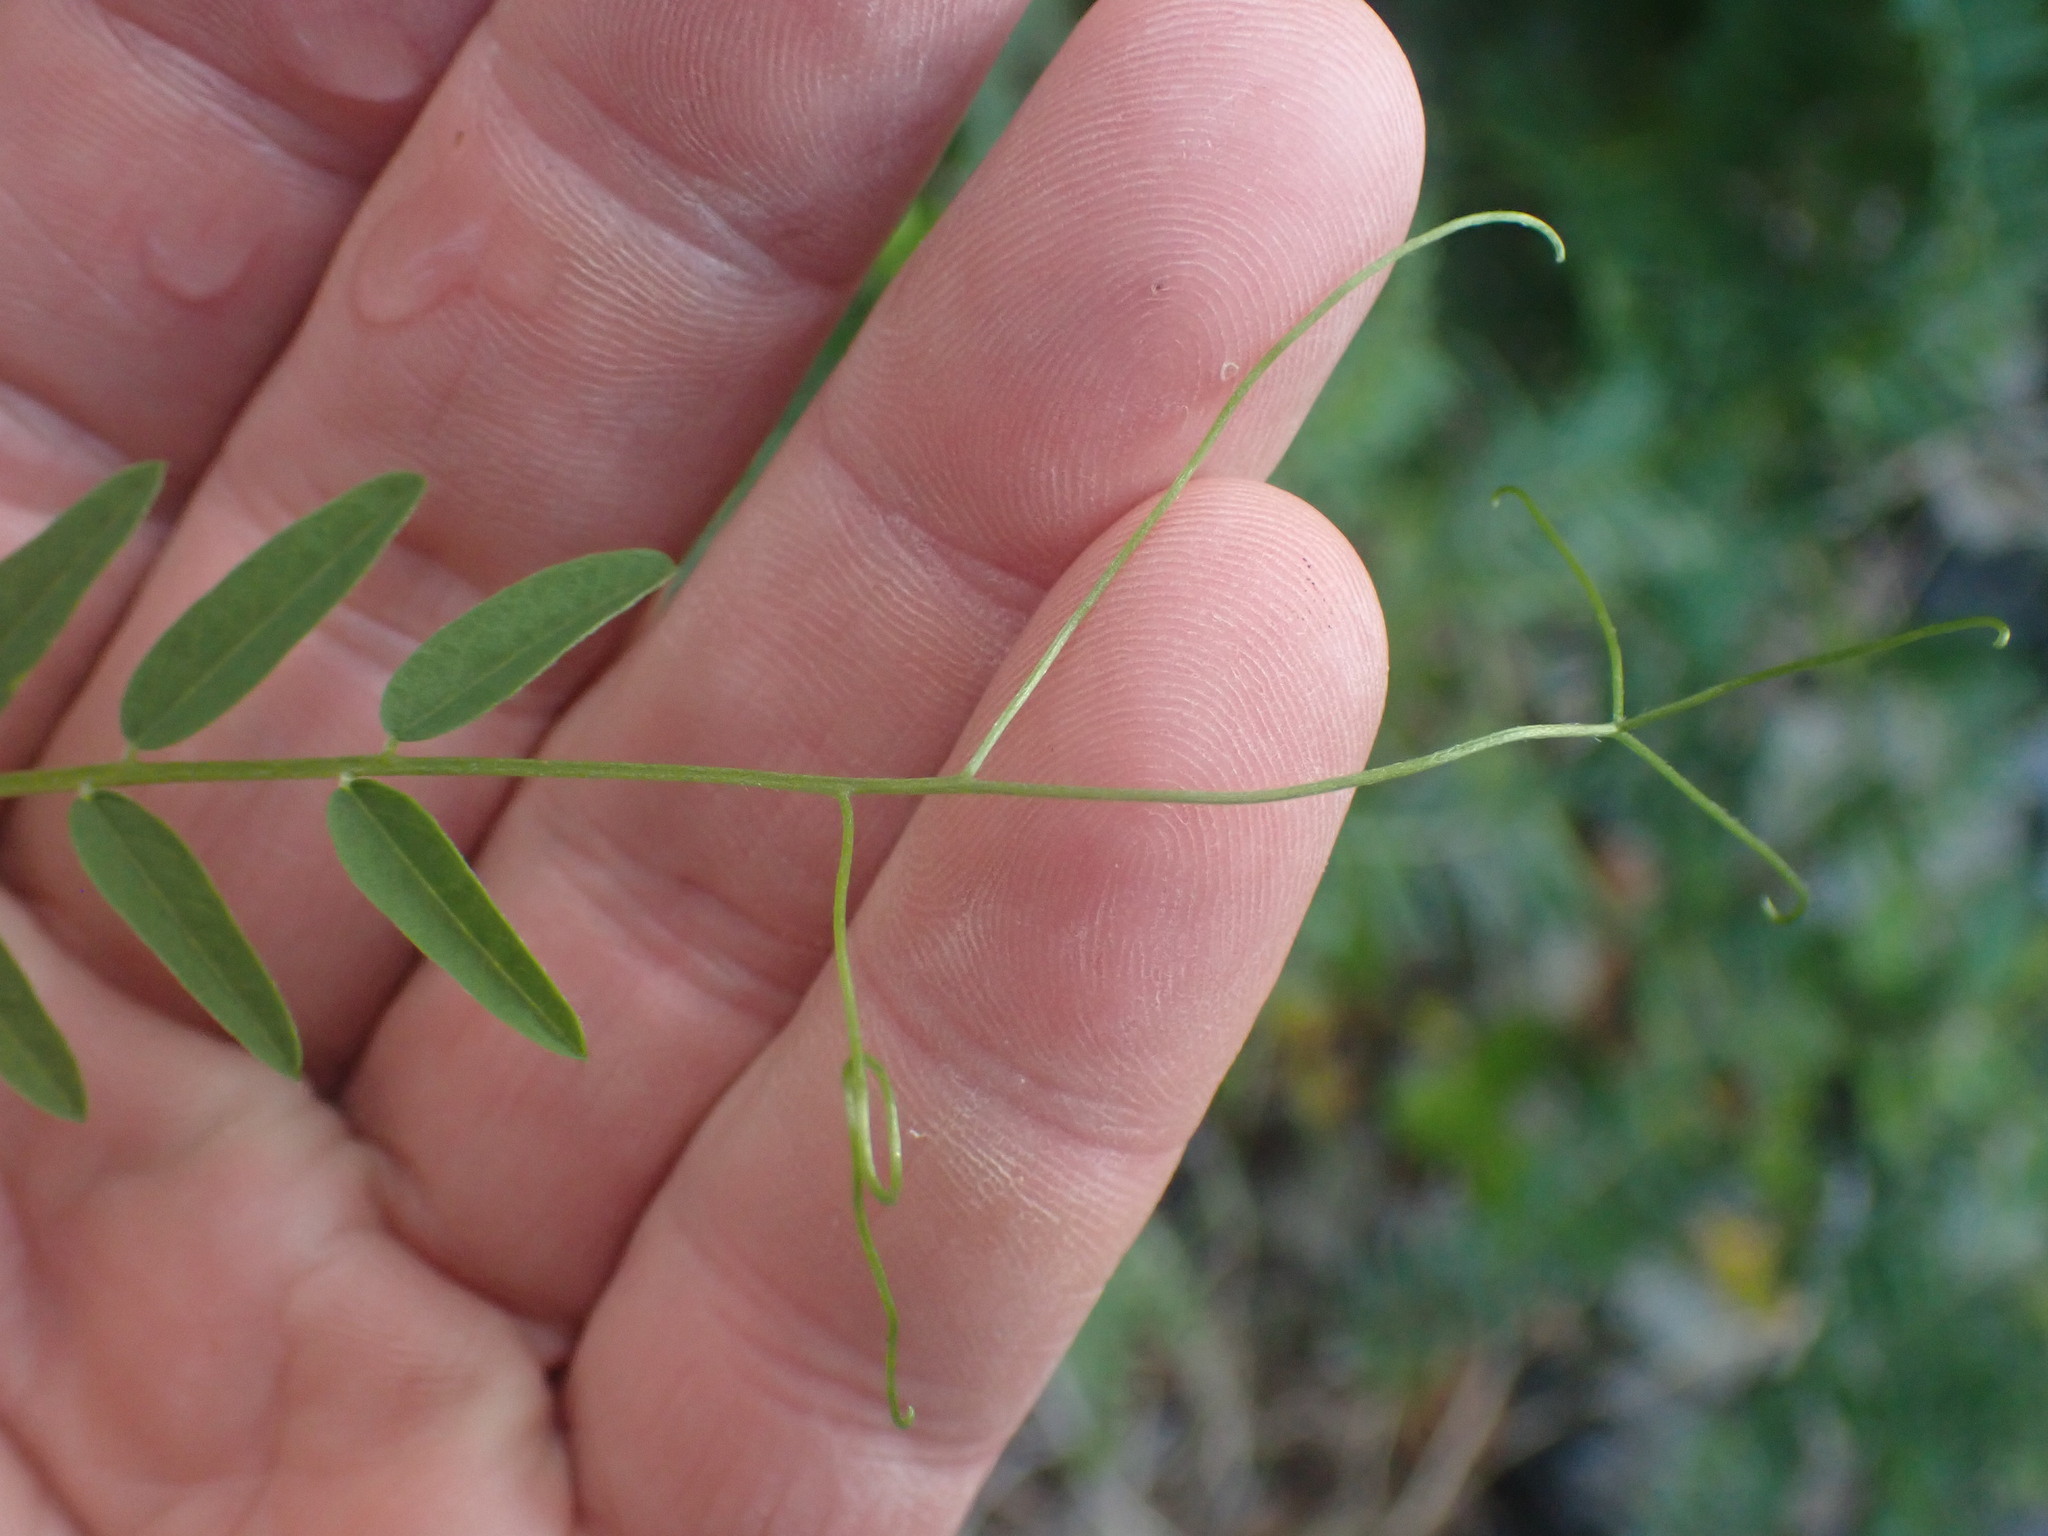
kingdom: Plantae
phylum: Tracheophyta
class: Magnoliopsida
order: Fabales
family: Fabaceae
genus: Vicia
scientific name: Vicia
